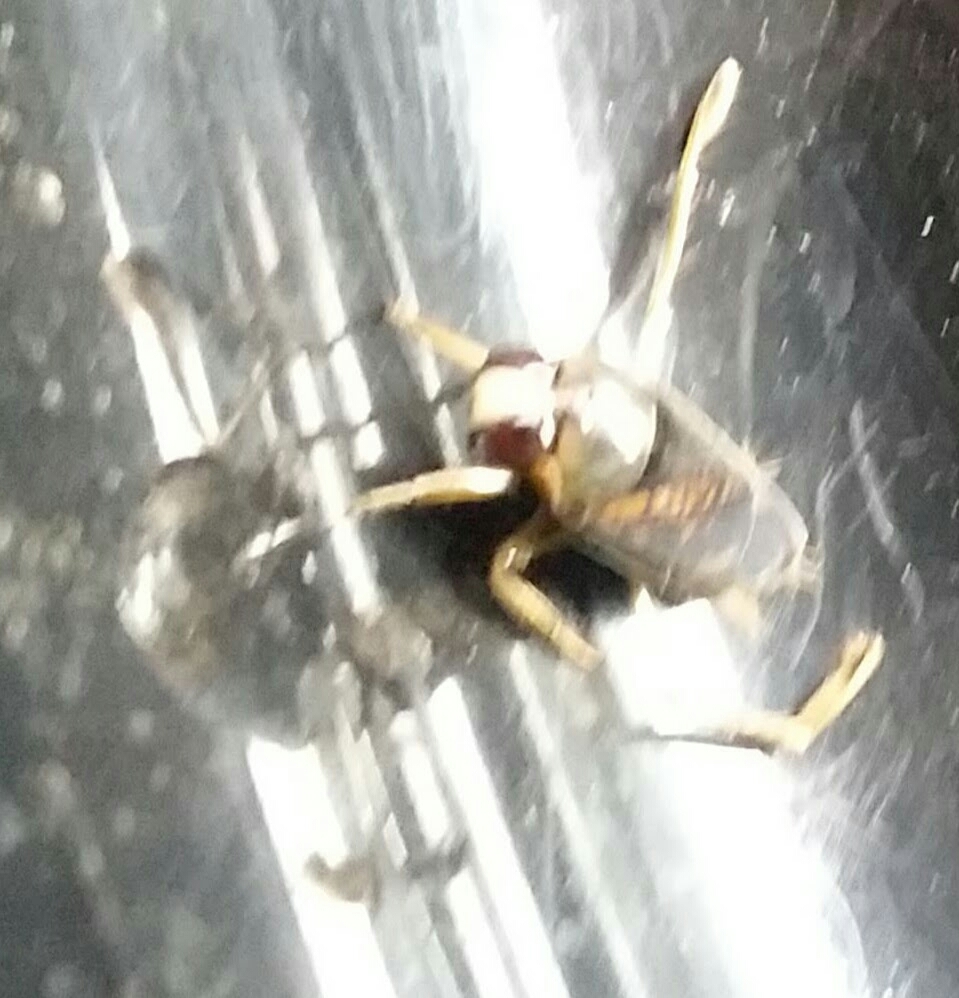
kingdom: Animalia
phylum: Arthropoda
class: Insecta
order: Hemiptera
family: Notonectidae
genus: Notonecta
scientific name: Notonecta irrorata
